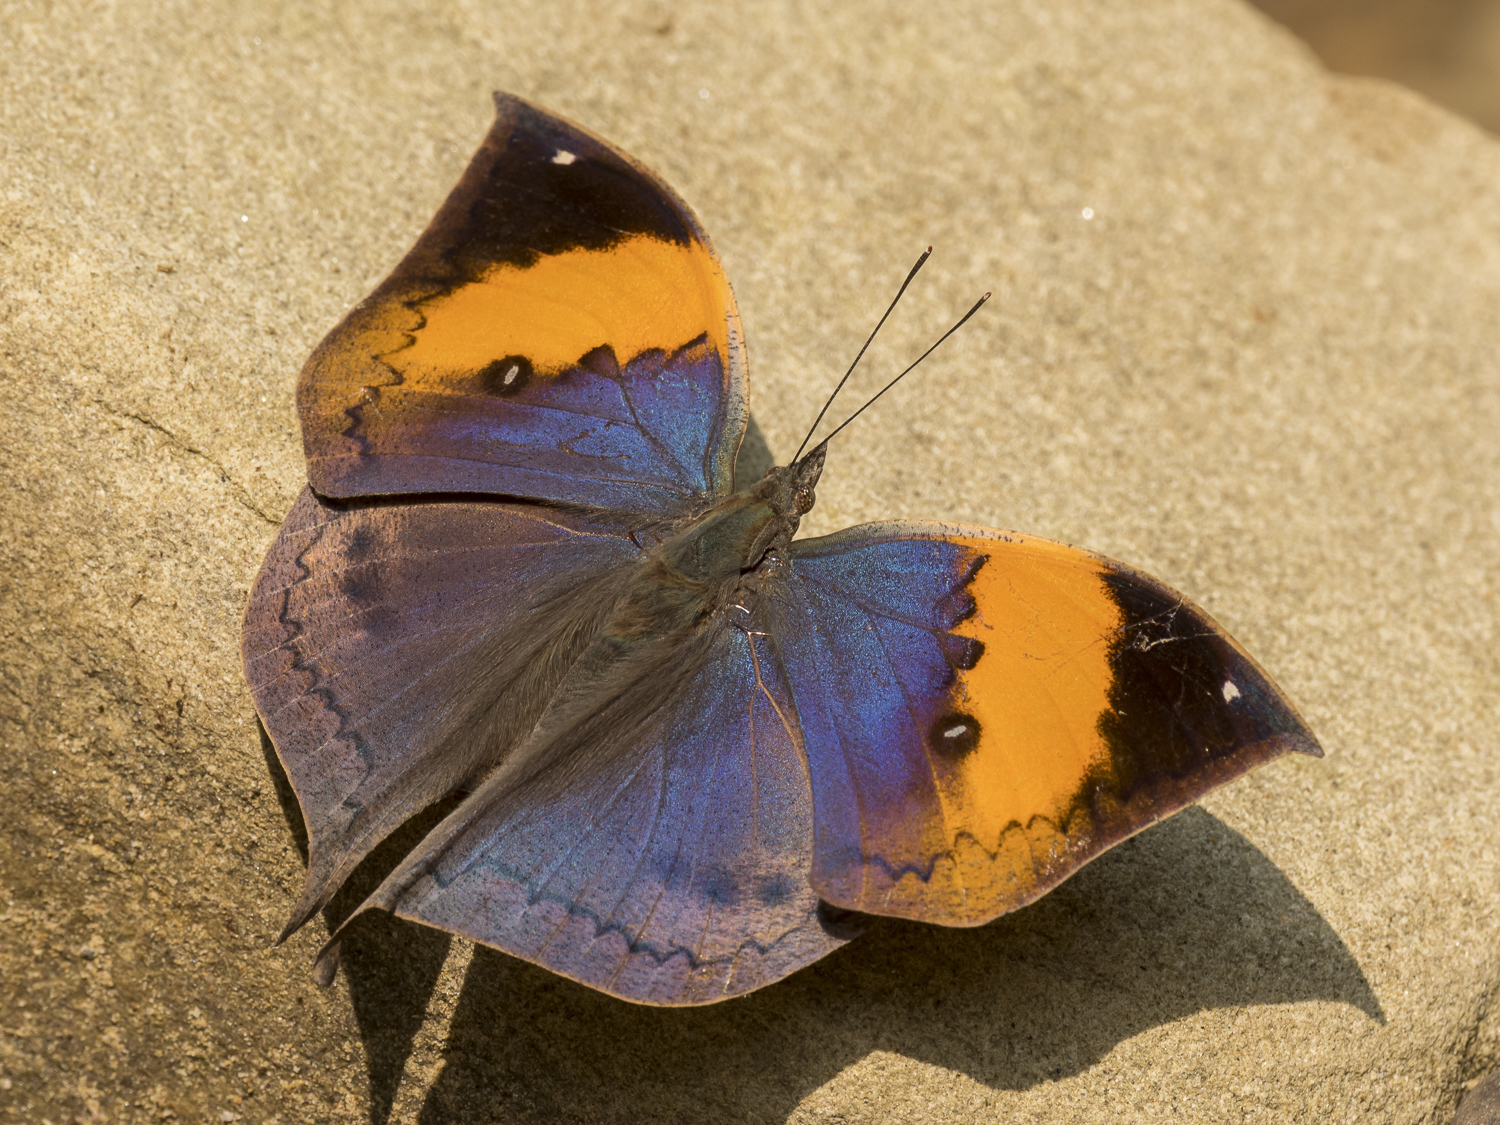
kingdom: Animalia
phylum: Arthropoda
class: Insecta
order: Lepidoptera
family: Nymphalidae
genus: Kallima
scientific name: Kallima inachus
